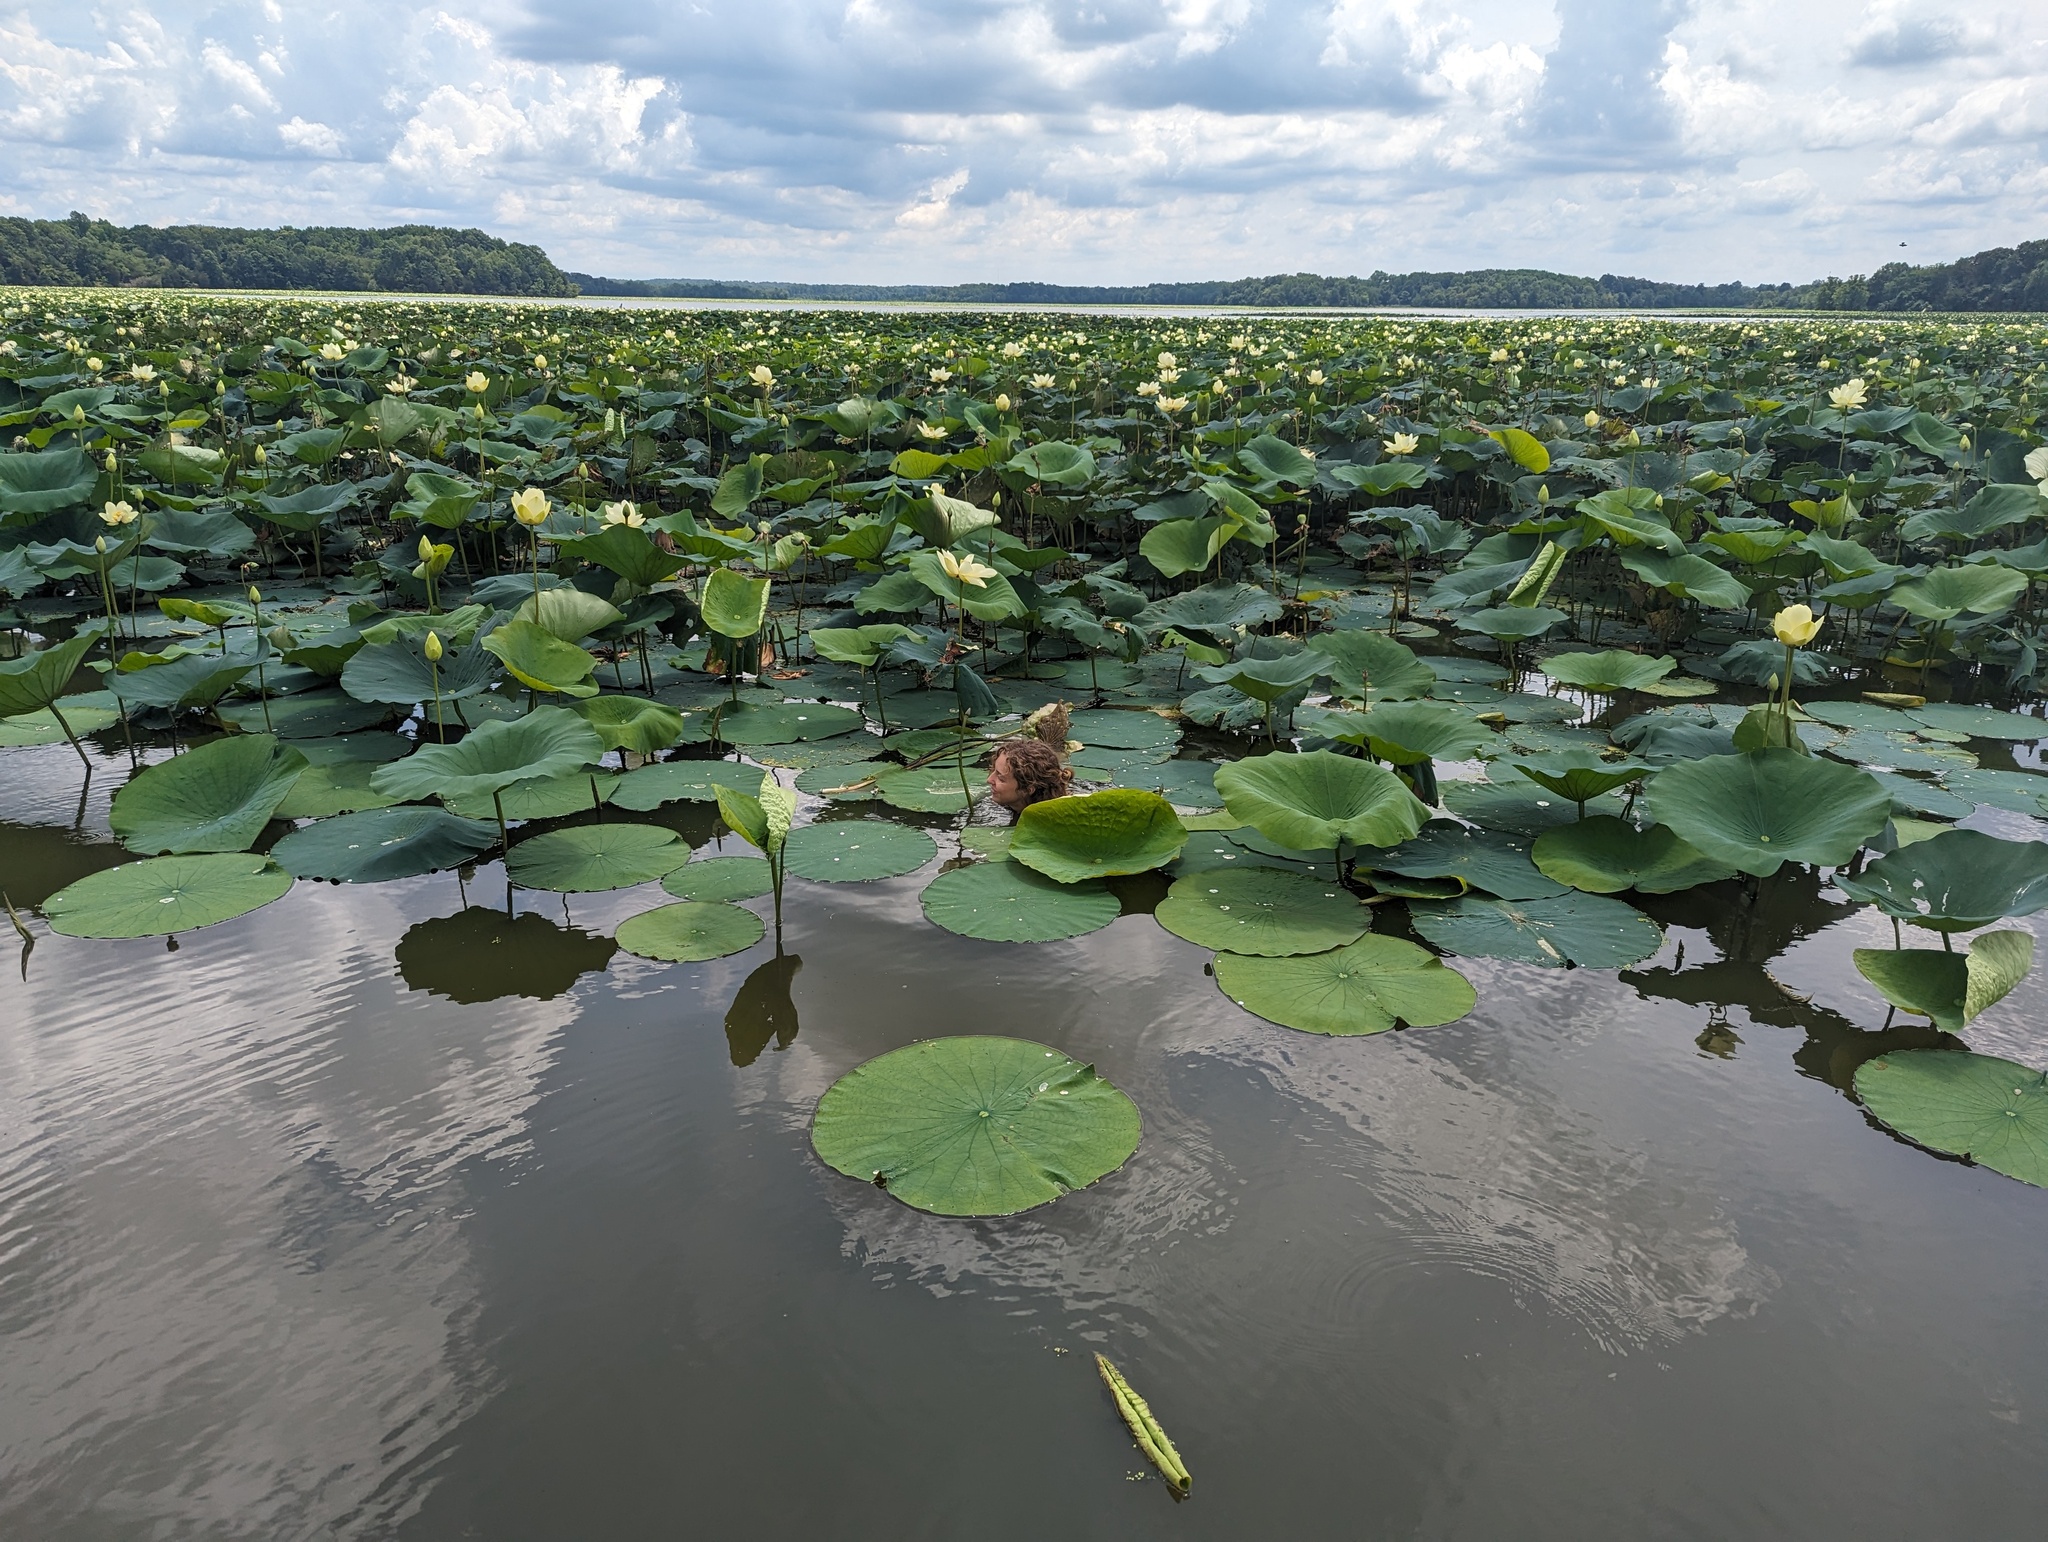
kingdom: Plantae
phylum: Tracheophyta
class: Magnoliopsida
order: Proteales
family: Nelumbonaceae
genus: Nelumbo
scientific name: Nelumbo lutea
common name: American lotus
